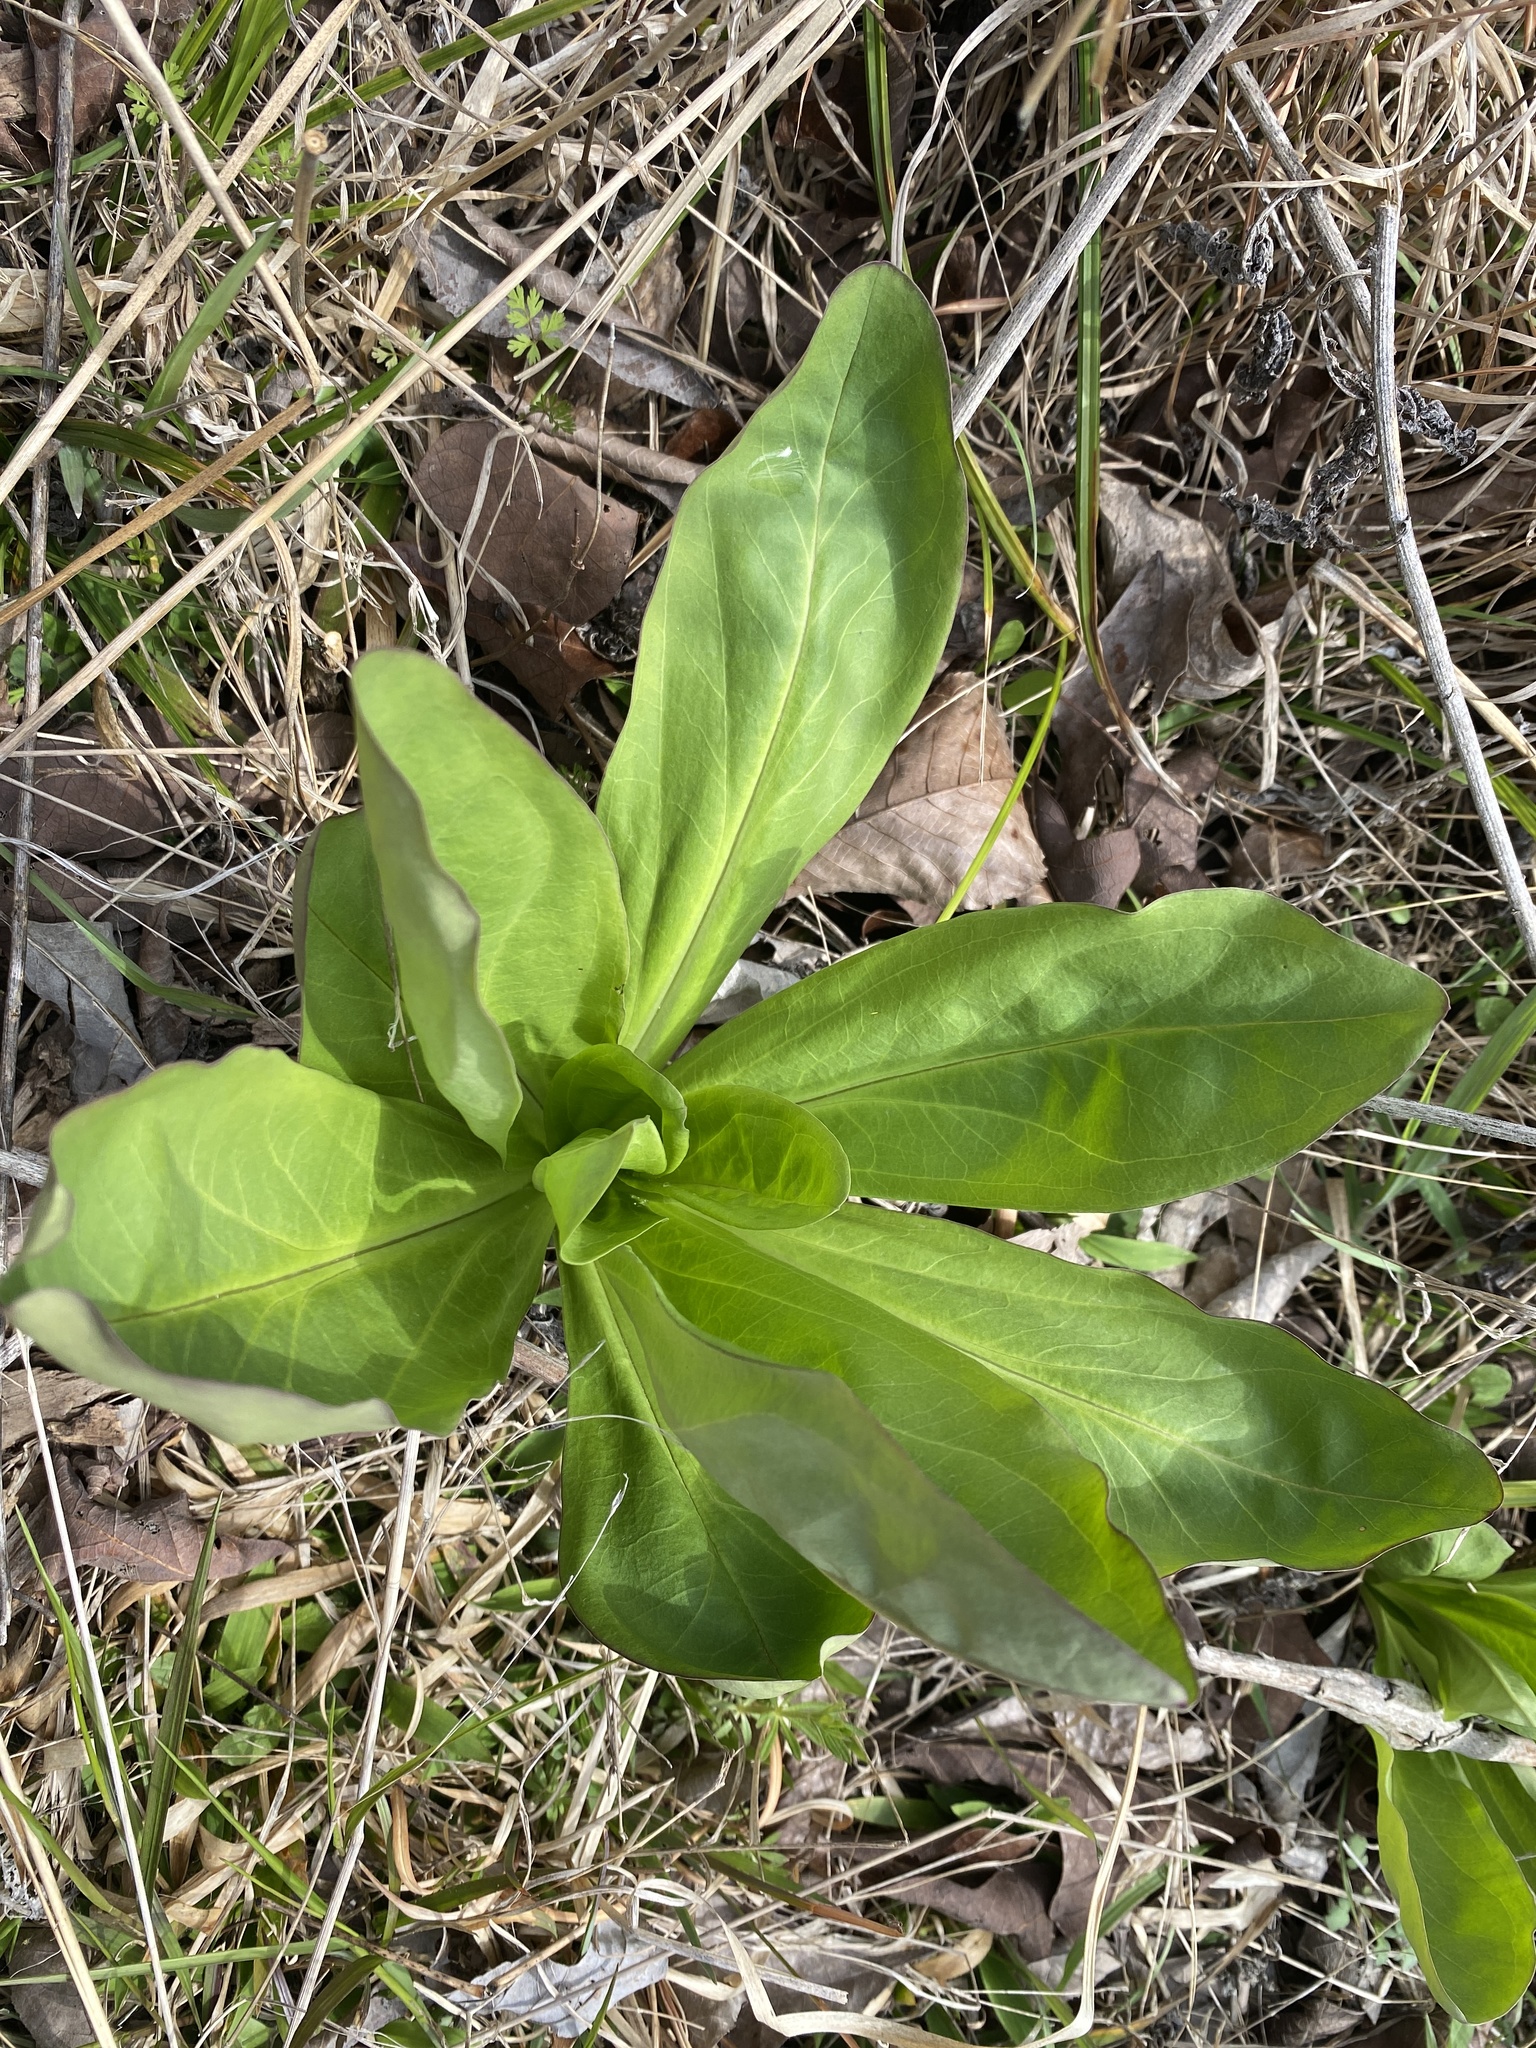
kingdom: Plantae
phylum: Tracheophyta
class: Magnoliopsida
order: Gentianales
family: Gentianaceae
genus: Frasera
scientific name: Frasera caroliniensis
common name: American columbo
